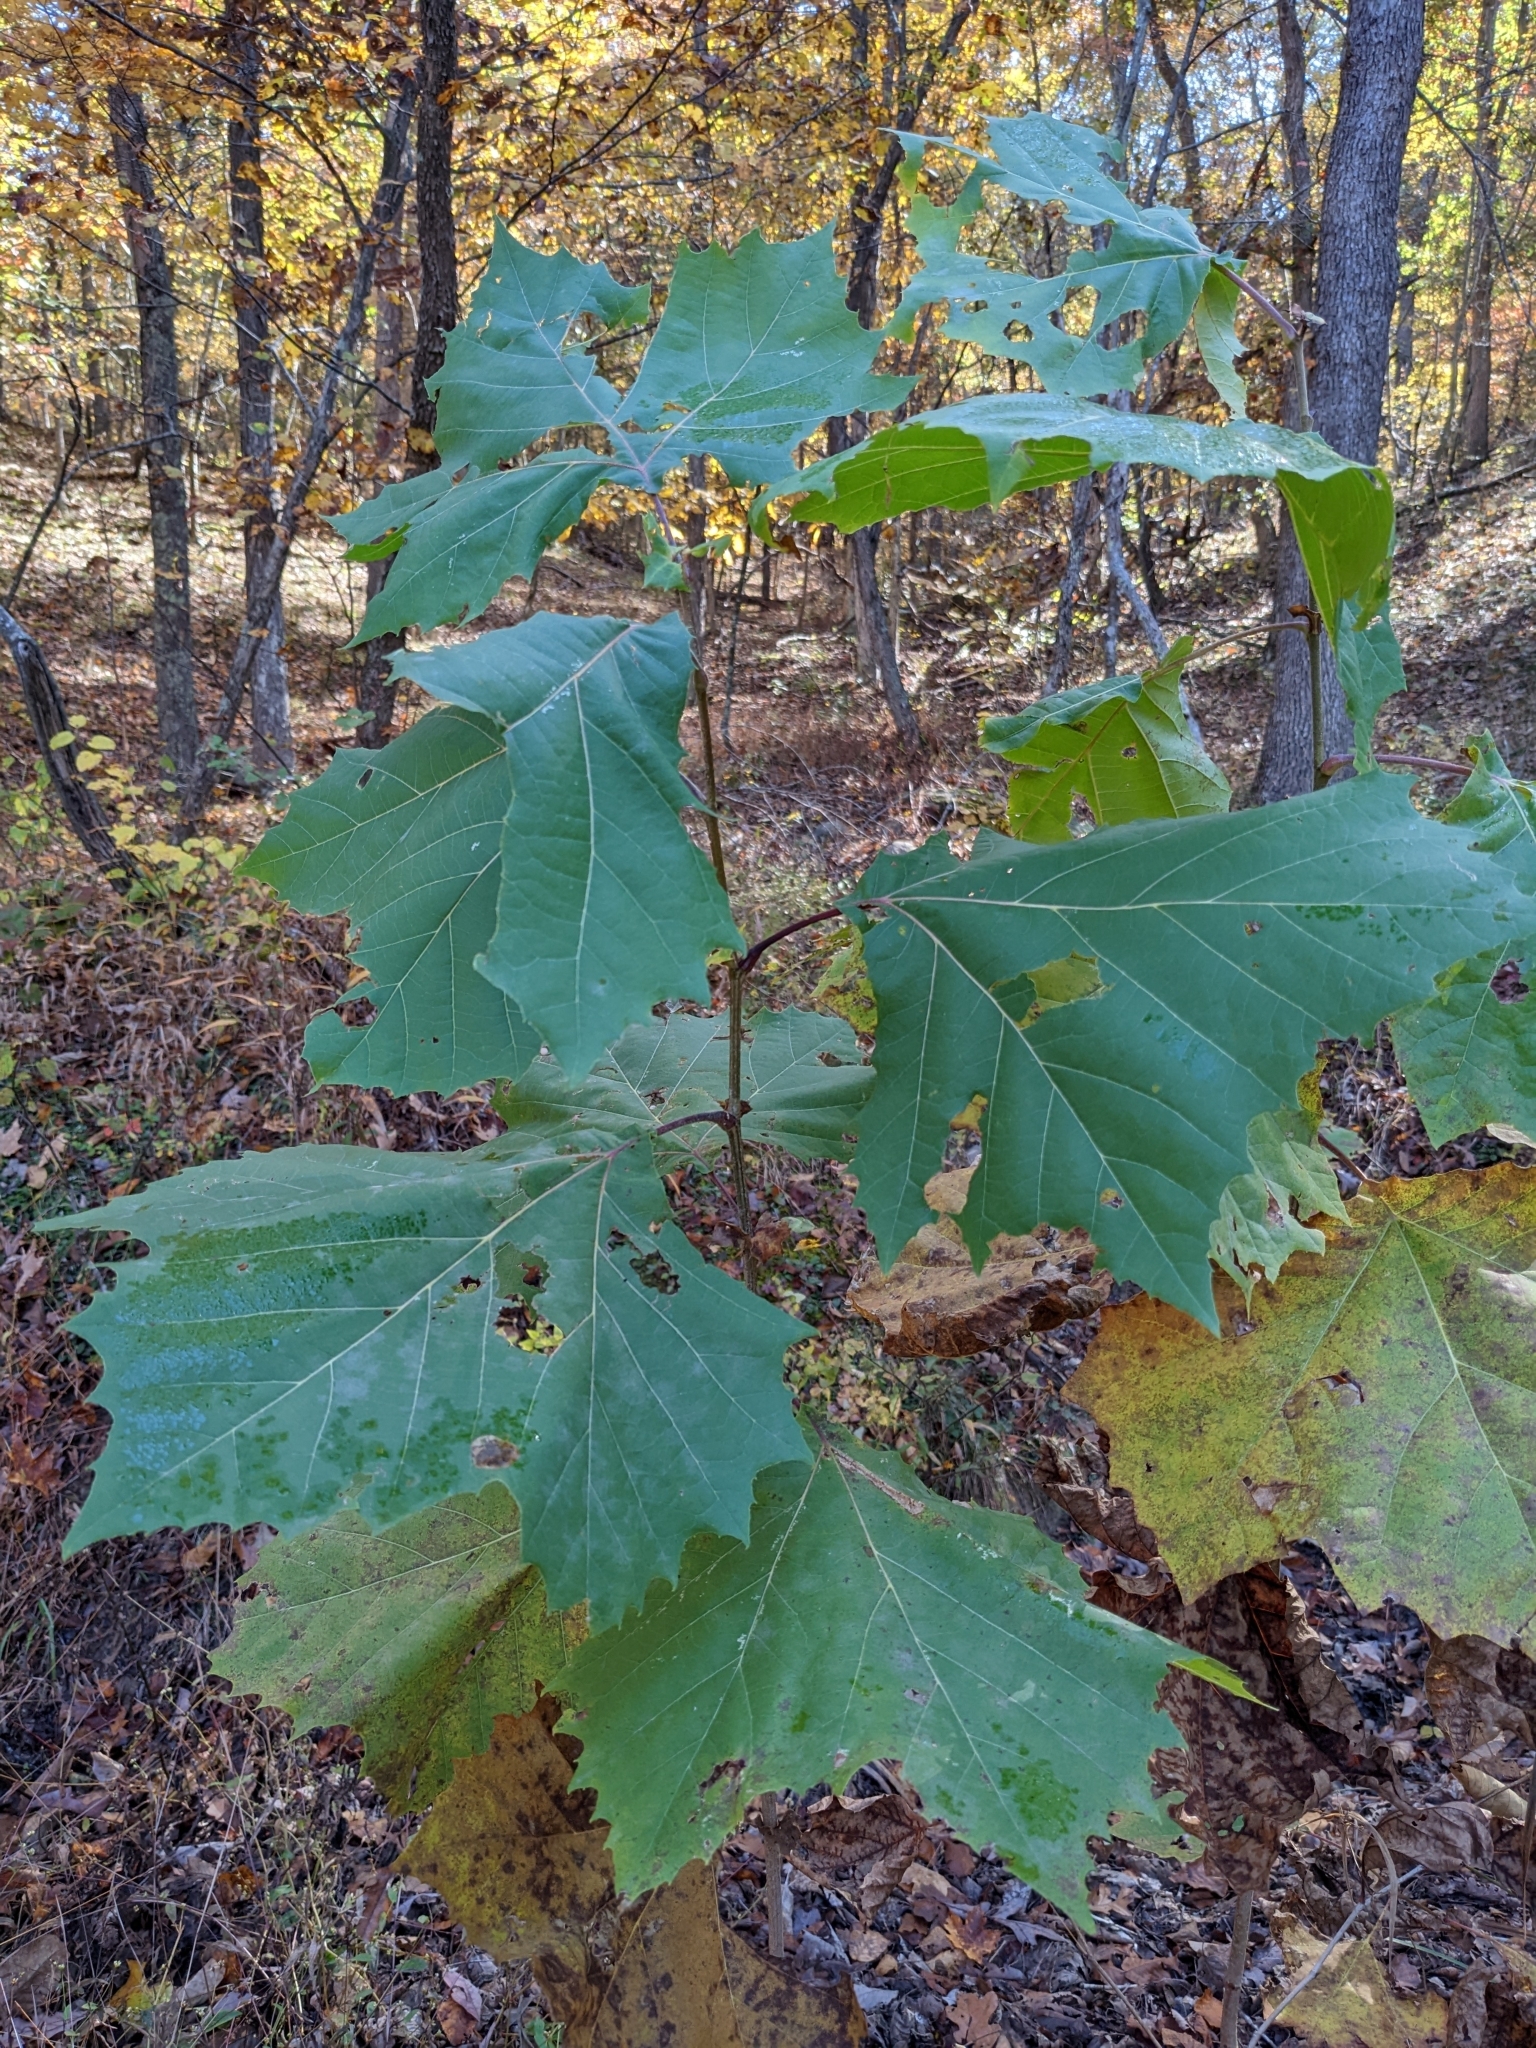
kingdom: Plantae
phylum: Tracheophyta
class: Magnoliopsida
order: Proteales
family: Platanaceae
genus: Platanus
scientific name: Platanus occidentalis
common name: American sycamore
